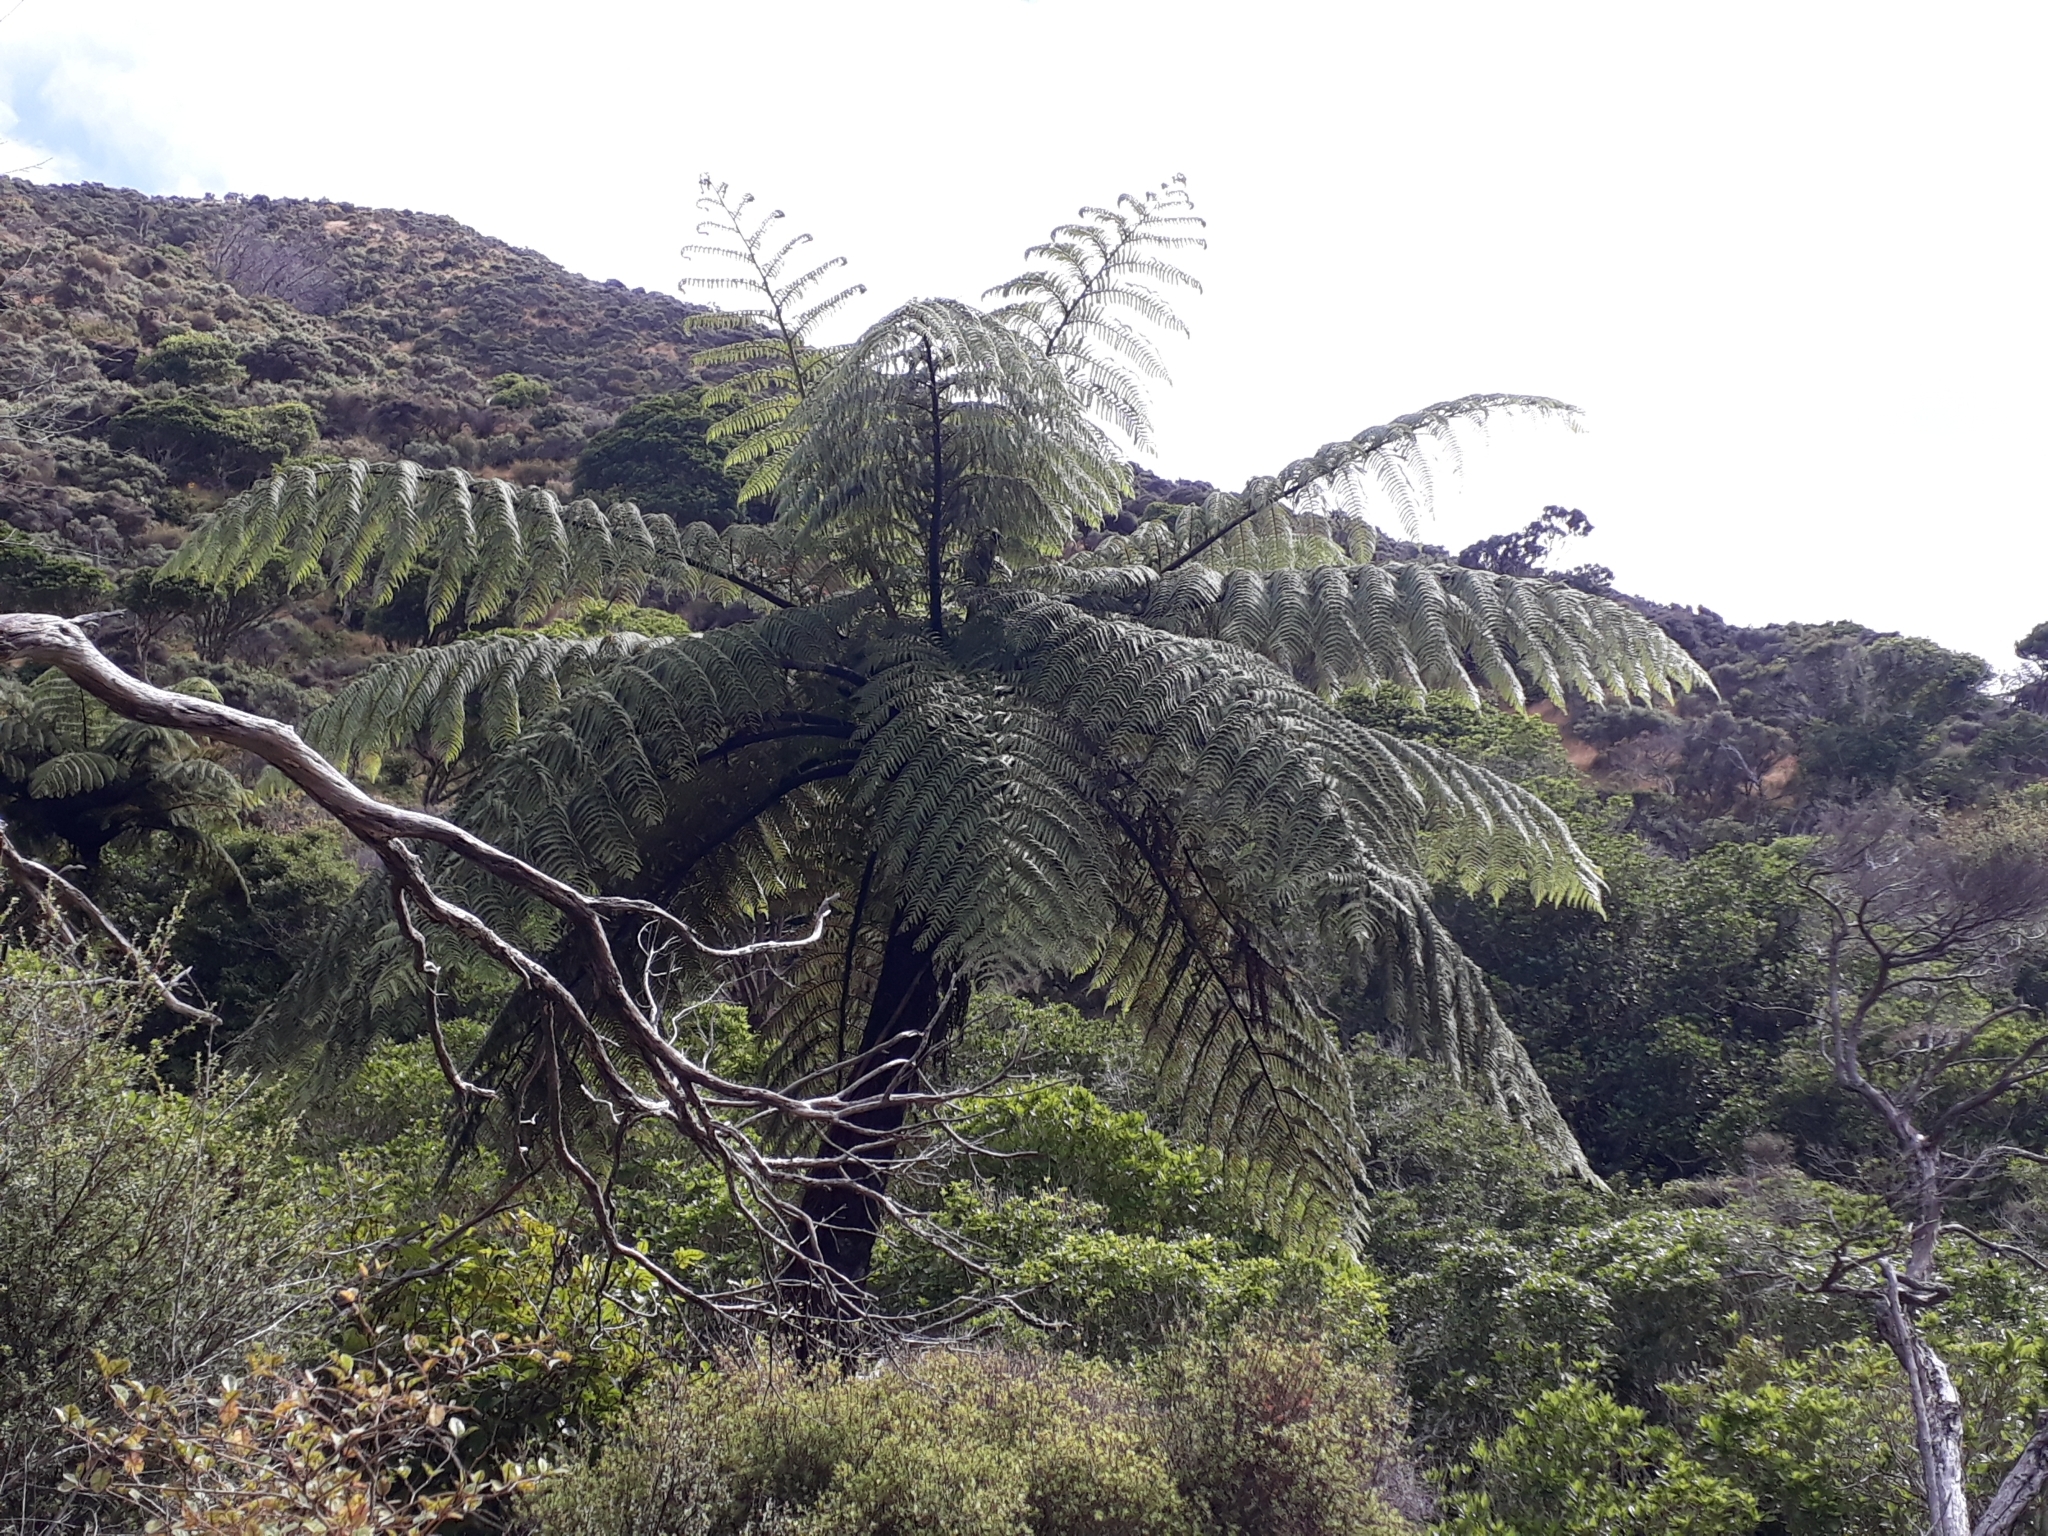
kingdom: Plantae
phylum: Tracheophyta
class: Polypodiopsida
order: Cyatheales
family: Cyatheaceae
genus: Sphaeropteris
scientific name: Sphaeropteris medullaris
